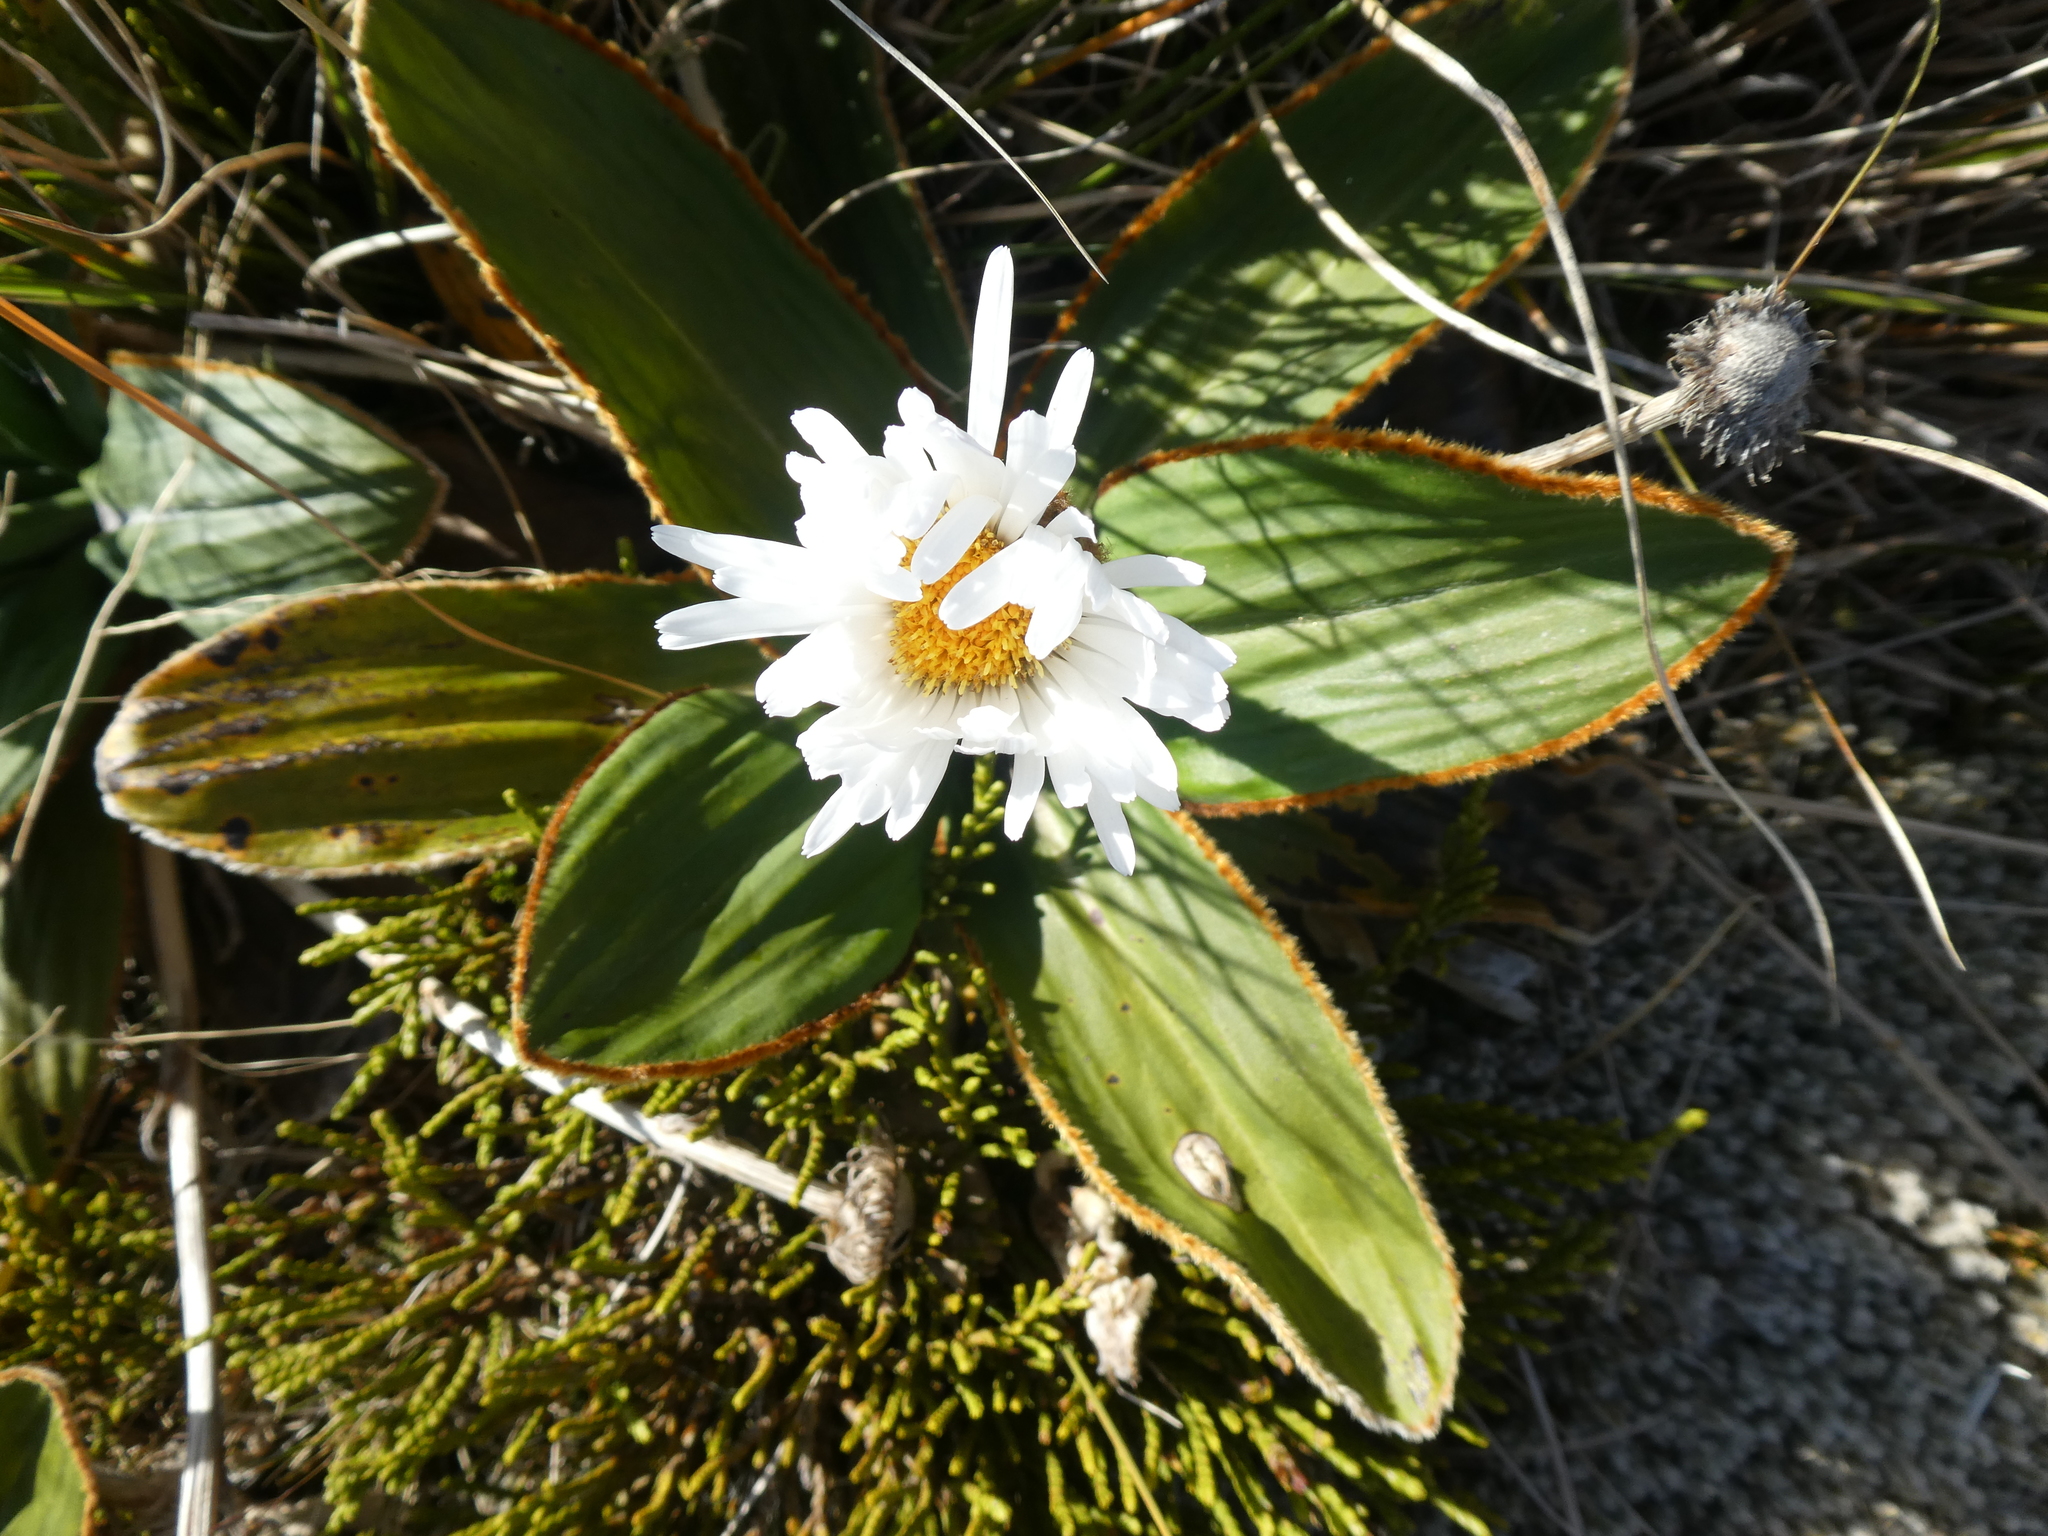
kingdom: Plantae
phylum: Tracheophyta
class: Magnoliopsida
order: Asterales
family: Asteraceae
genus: Celmisia
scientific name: Celmisia traversii
